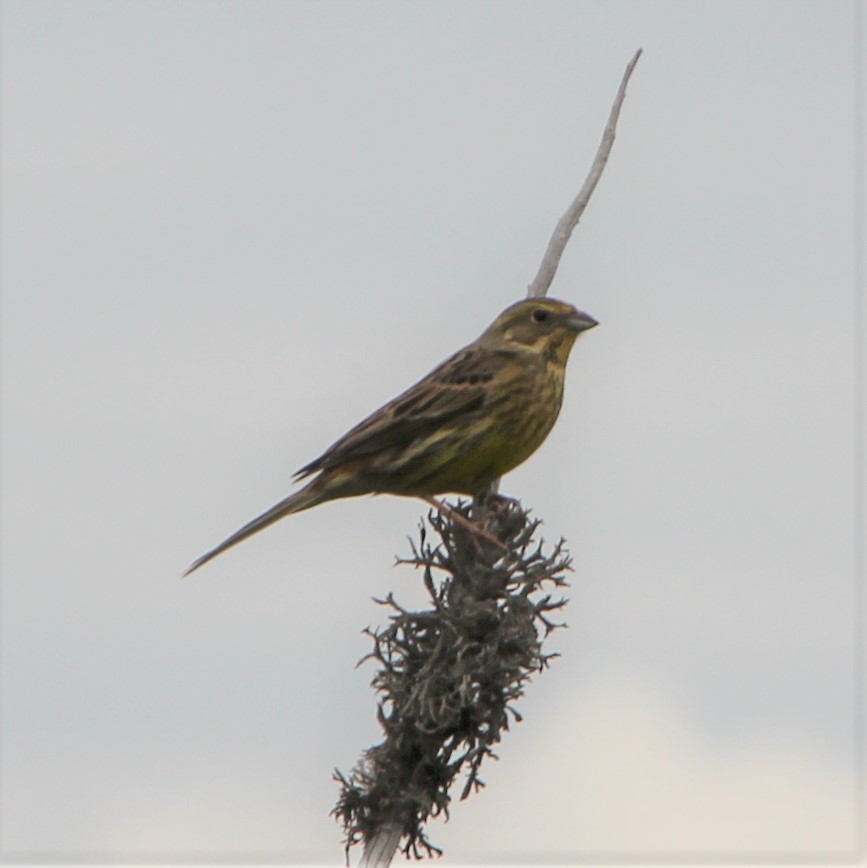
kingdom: Animalia
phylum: Chordata
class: Aves
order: Passeriformes
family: Emberizidae
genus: Emberiza
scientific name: Emberiza citrinella
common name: Yellowhammer
